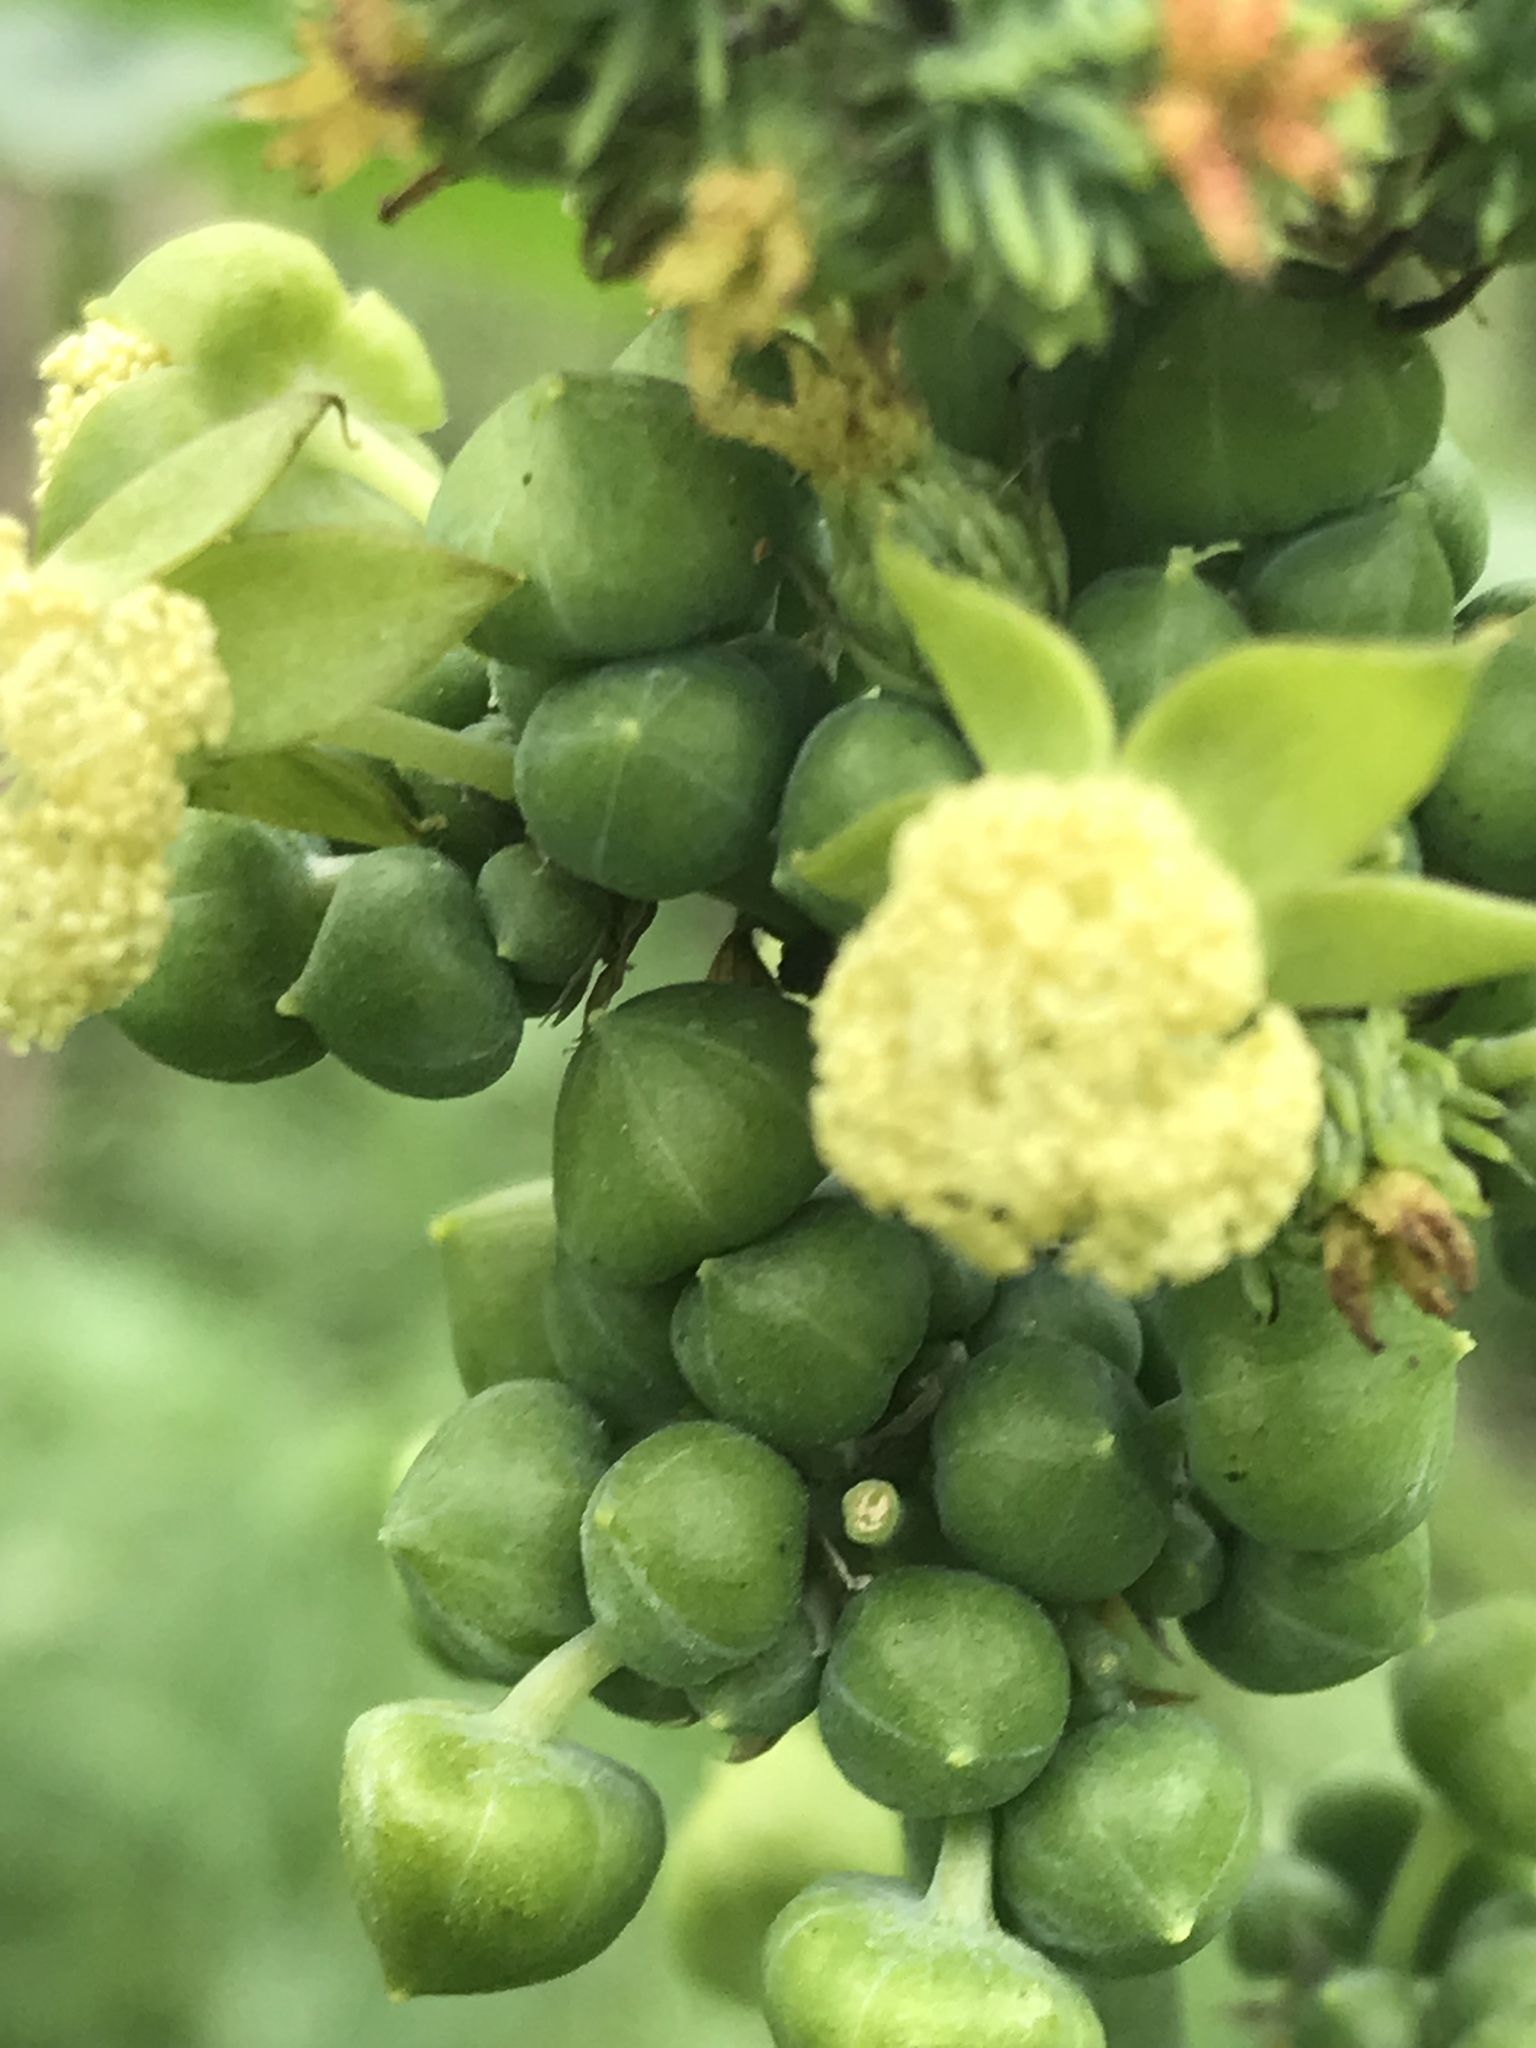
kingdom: Plantae
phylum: Tracheophyta
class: Magnoliopsida
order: Malpighiales
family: Euphorbiaceae
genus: Ricinus
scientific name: Ricinus communis
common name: Castor-oil-plant
